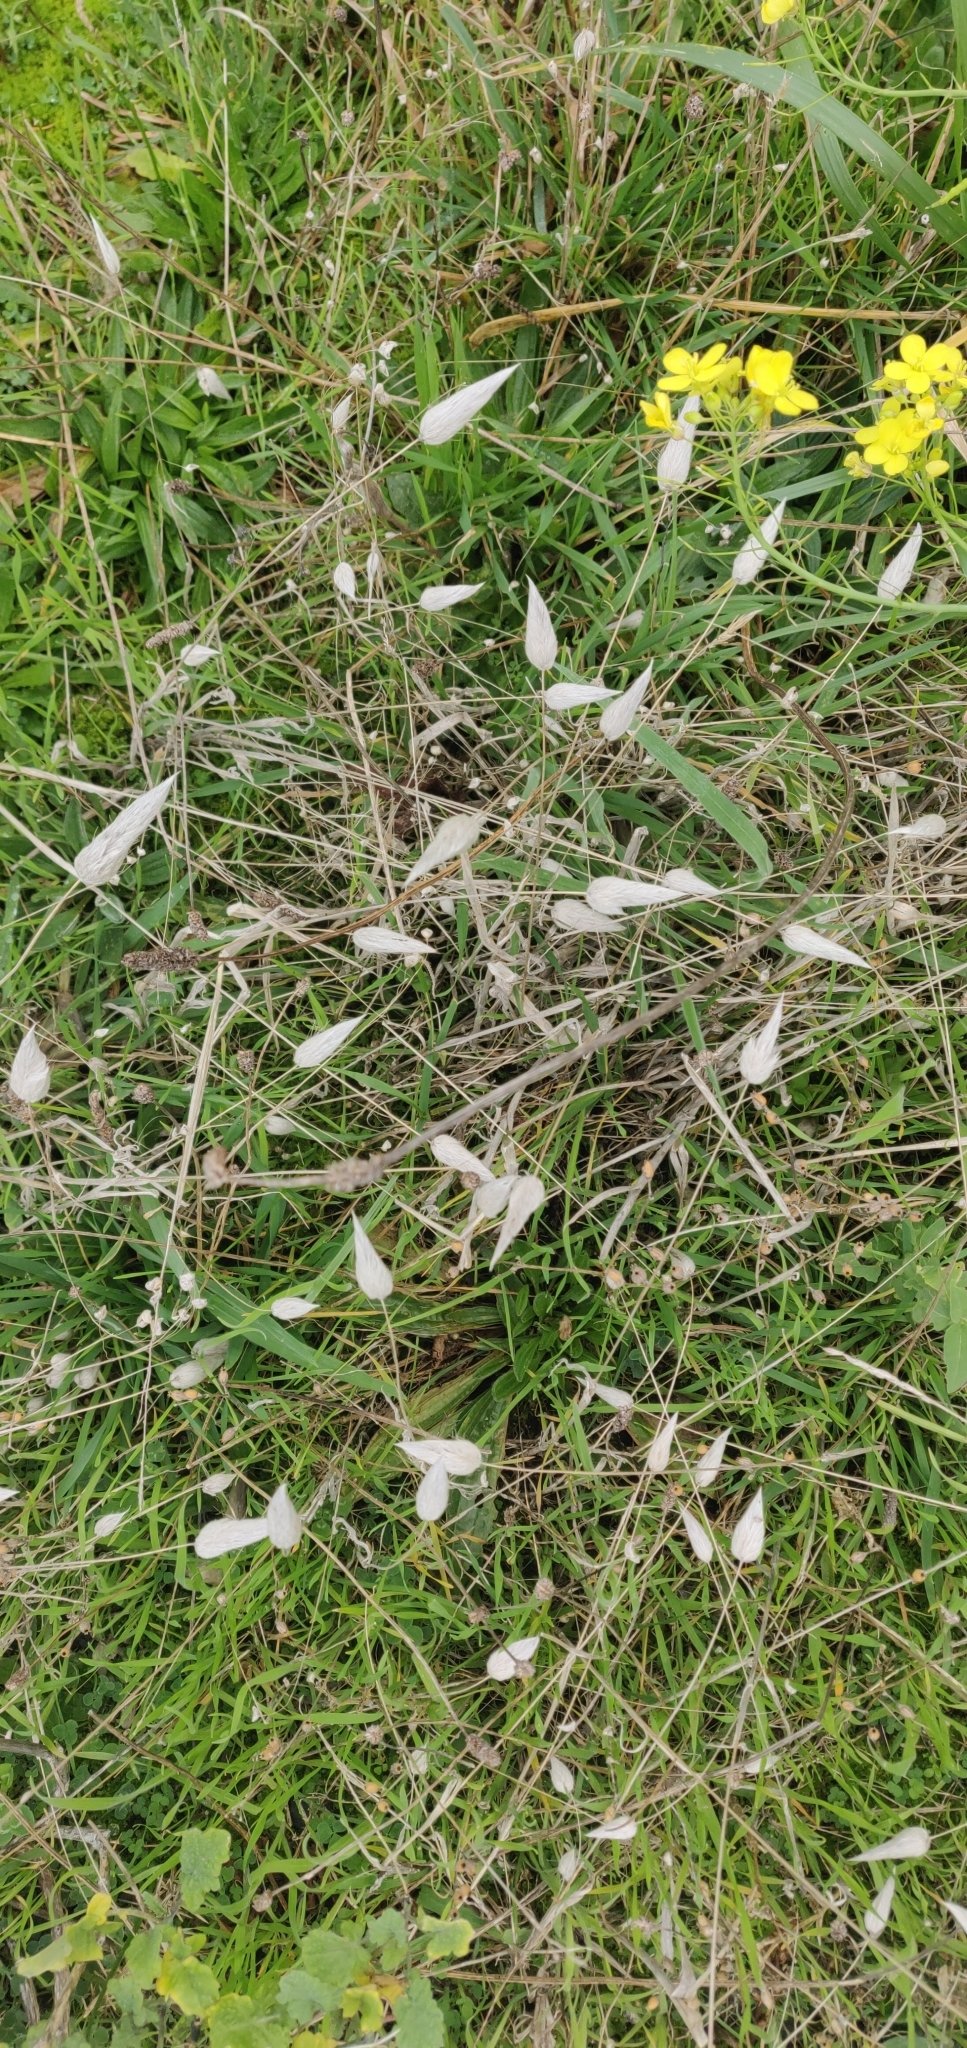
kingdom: Plantae
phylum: Tracheophyta
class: Liliopsida
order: Poales
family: Poaceae
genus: Lagurus
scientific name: Lagurus ovatus
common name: Hare's-tail
